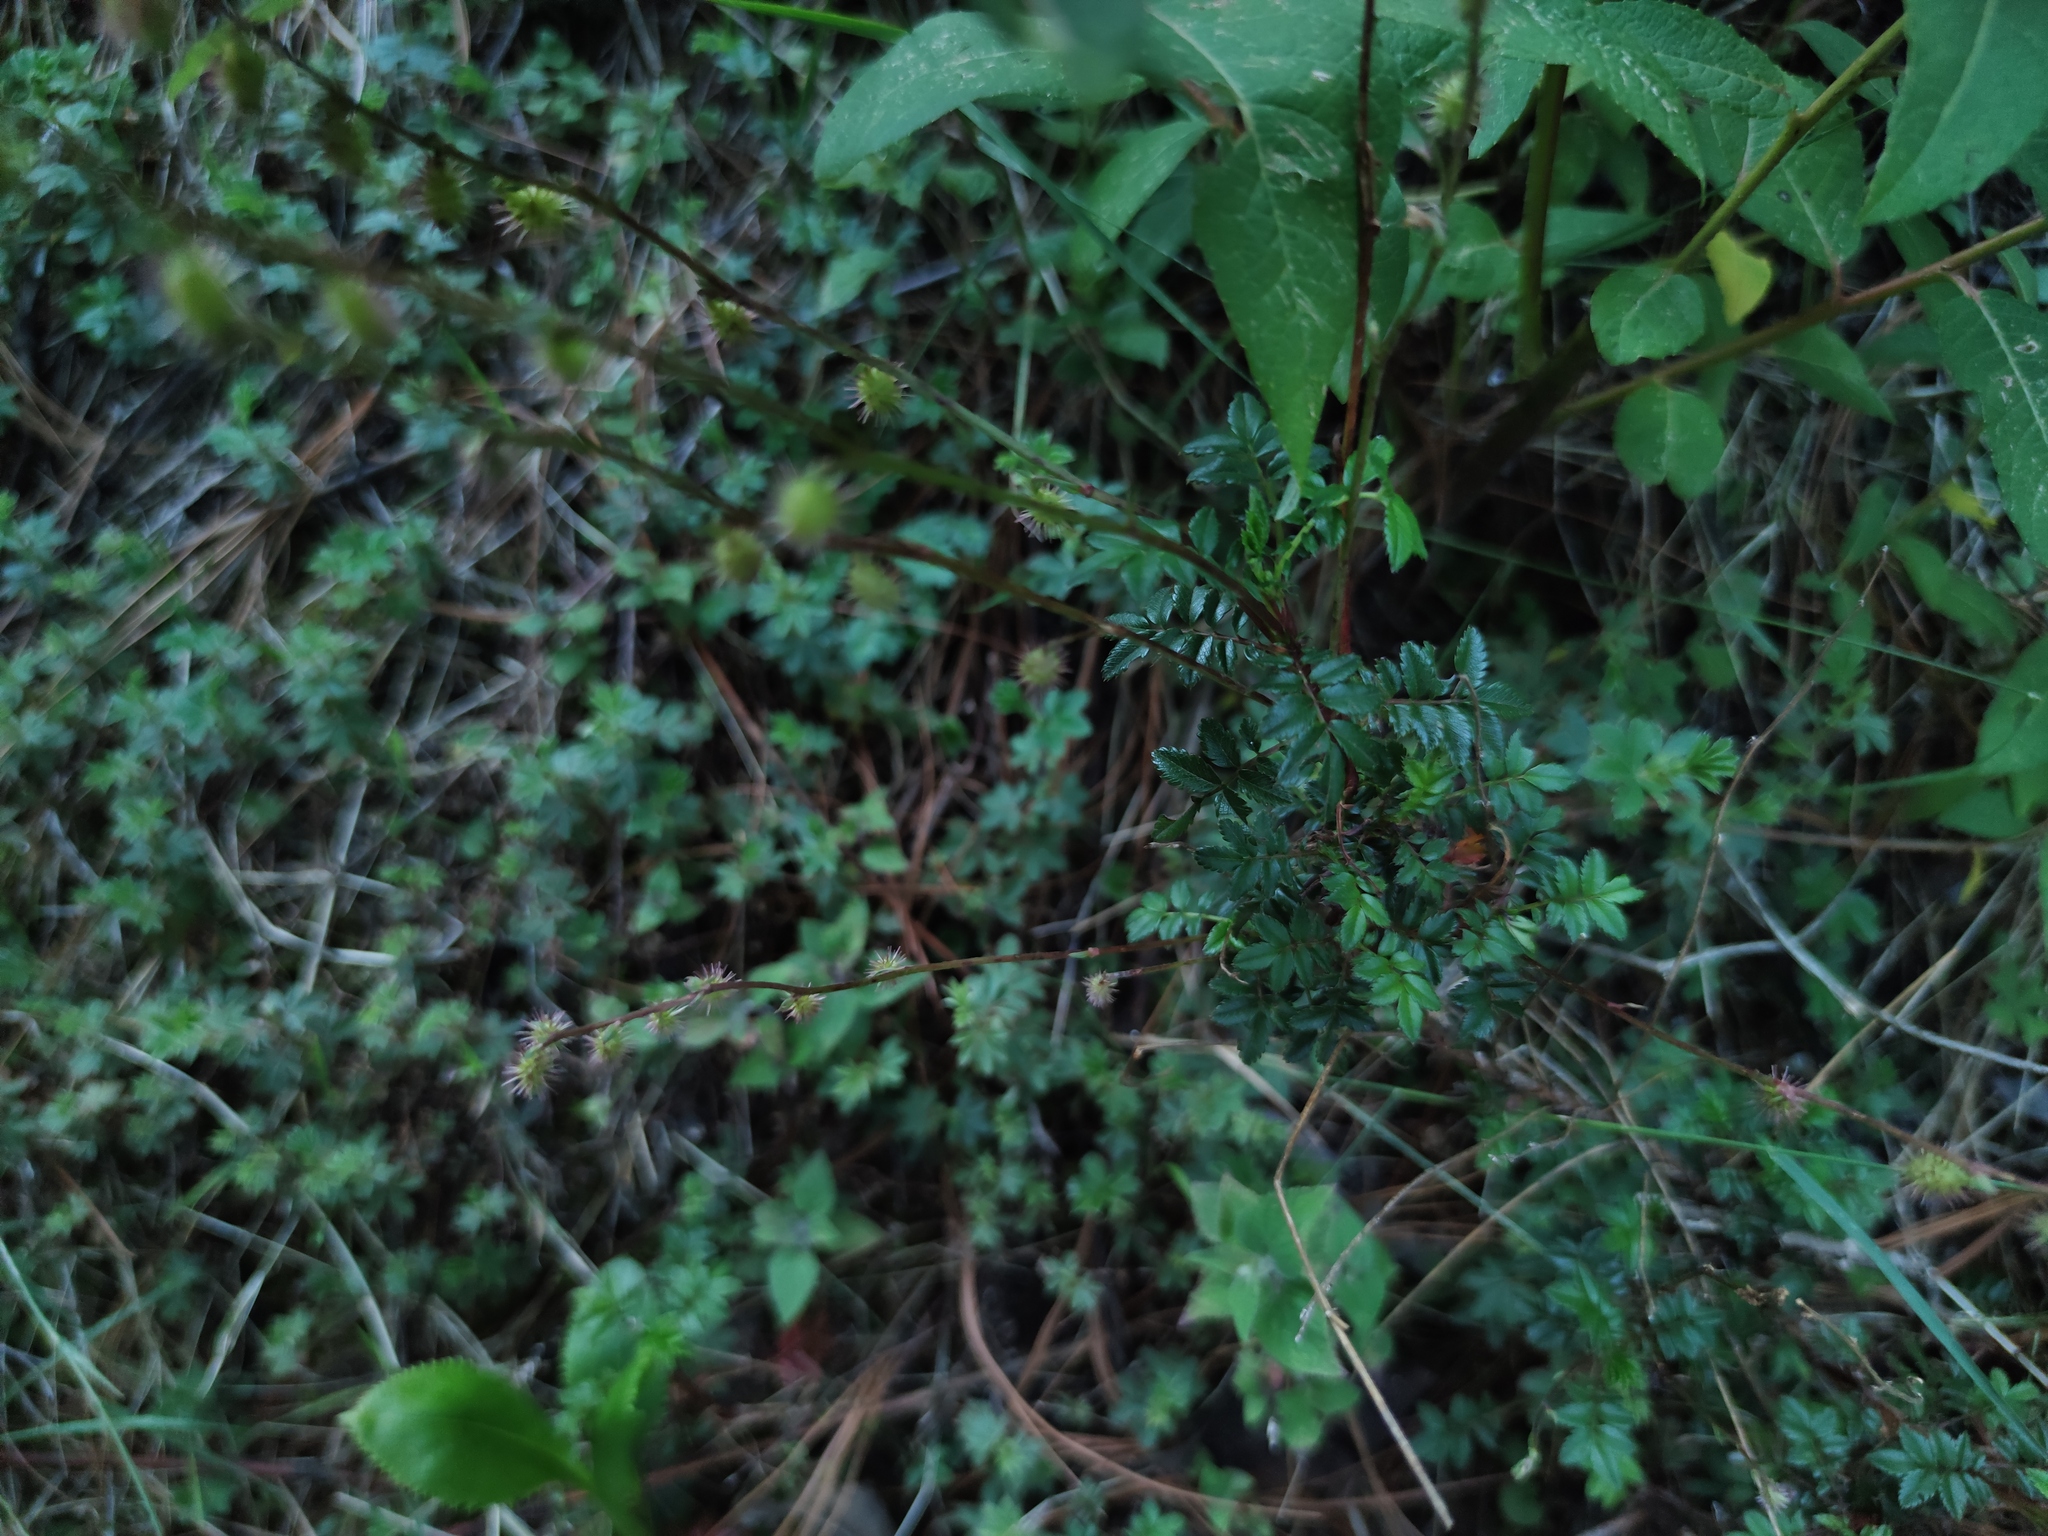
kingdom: Plantae
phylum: Tracheophyta
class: Magnoliopsida
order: Rosales
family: Rosaceae
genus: Acaena
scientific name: Acaena elongata
